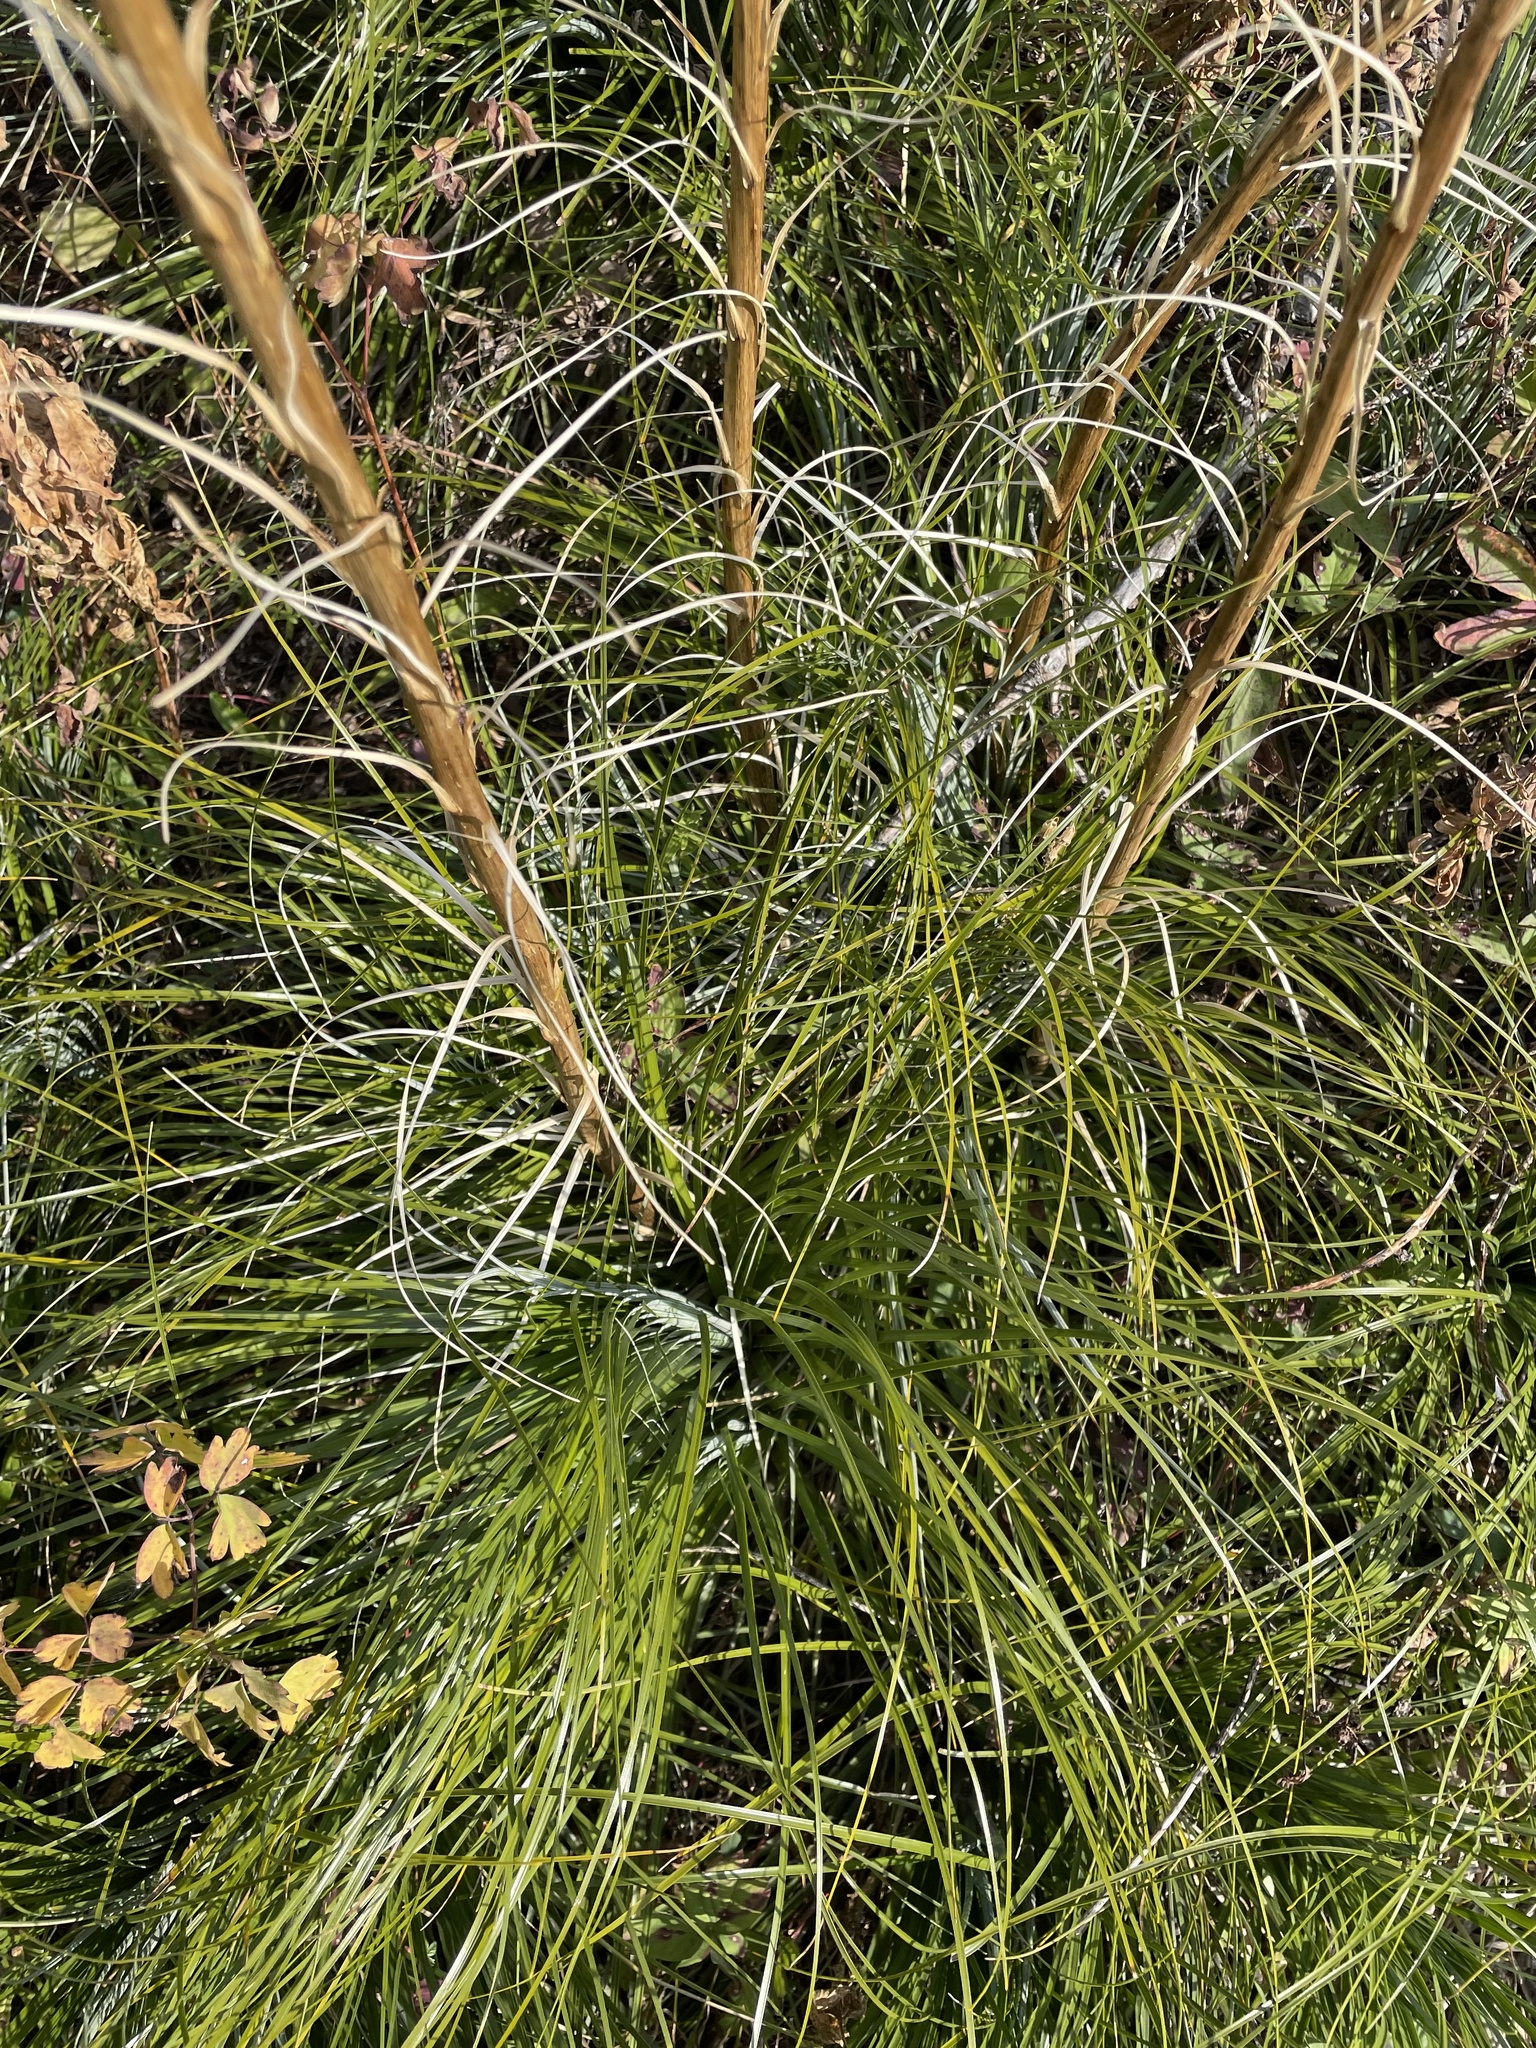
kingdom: Plantae
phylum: Tracheophyta
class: Liliopsida
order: Liliales
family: Melanthiaceae
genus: Xerophyllum
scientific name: Xerophyllum tenax
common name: Bear-grass
